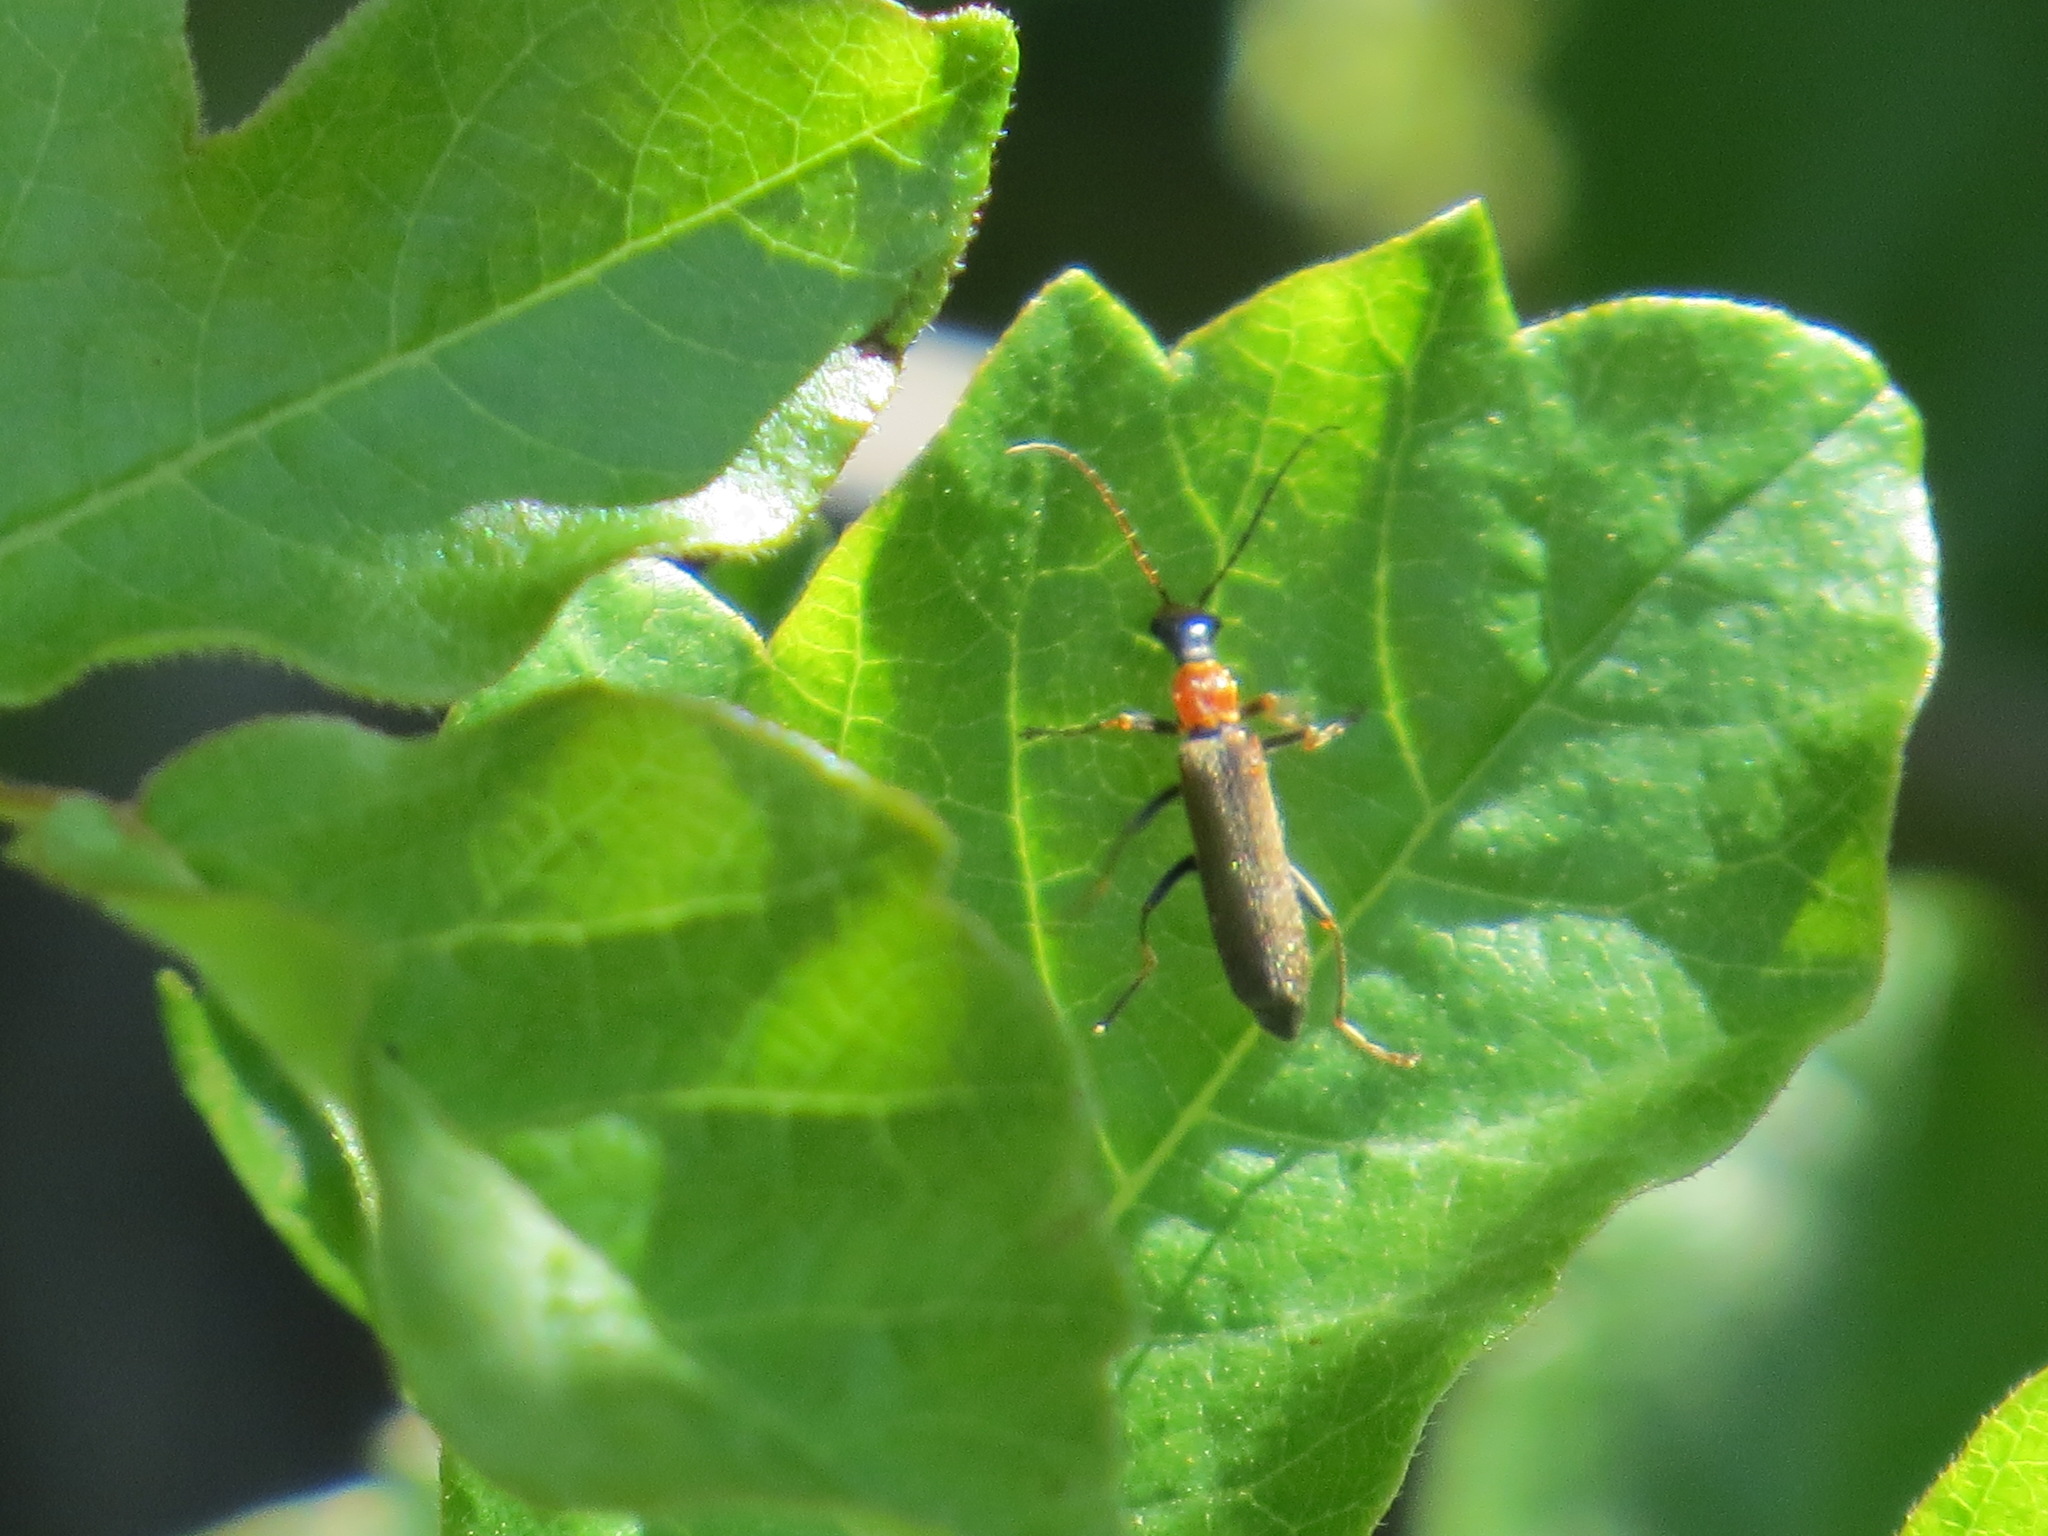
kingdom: Animalia
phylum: Arthropoda
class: Insecta
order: Coleoptera
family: Cantharidae
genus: Dichelotarsus
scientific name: Dichelotarsus cavicollis
